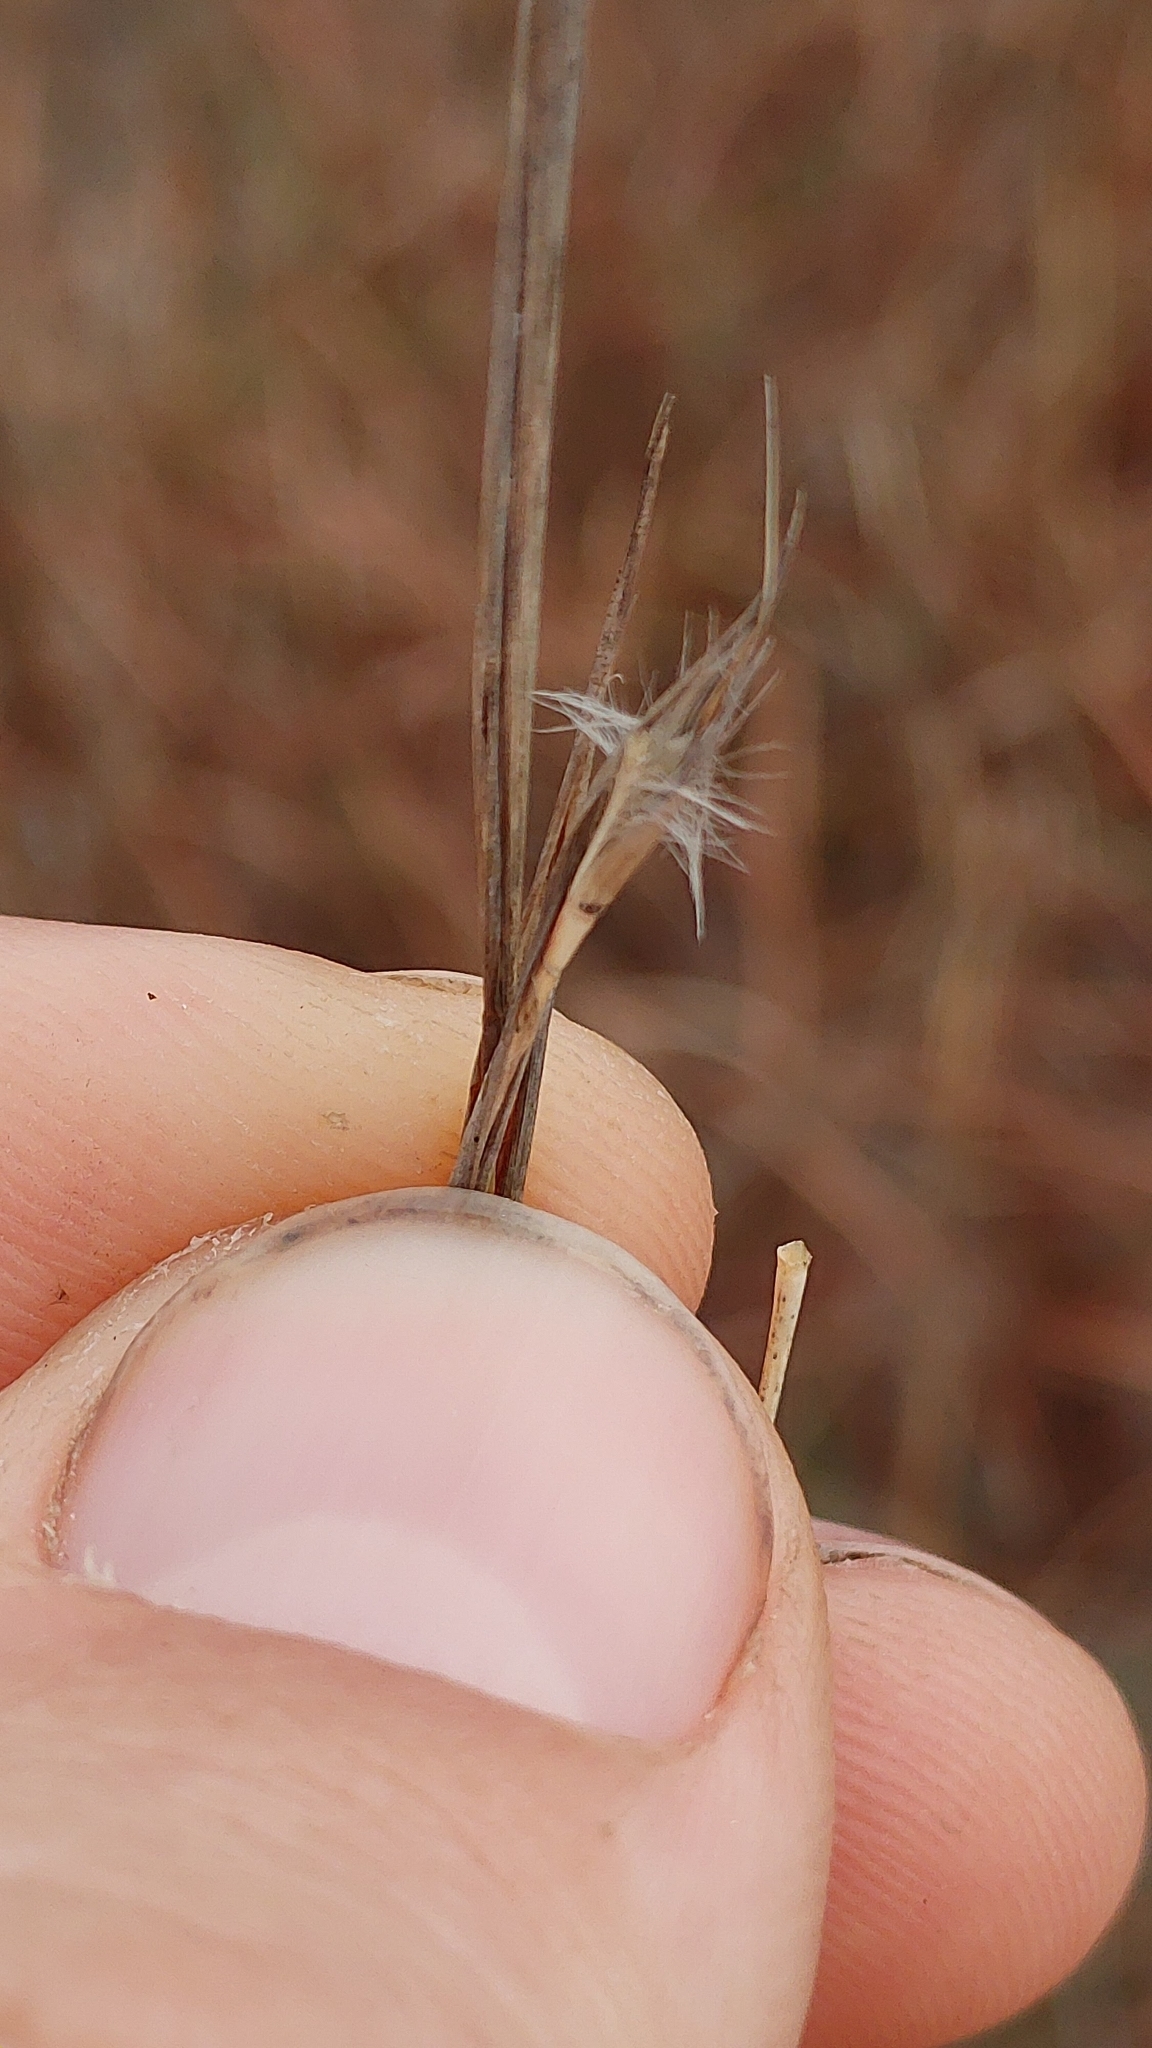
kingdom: Plantae
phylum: Tracheophyta
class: Liliopsida
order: Poales
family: Poaceae
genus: Schizachyrium
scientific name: Schizachyrium maritimum
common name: Gulf bluestem
